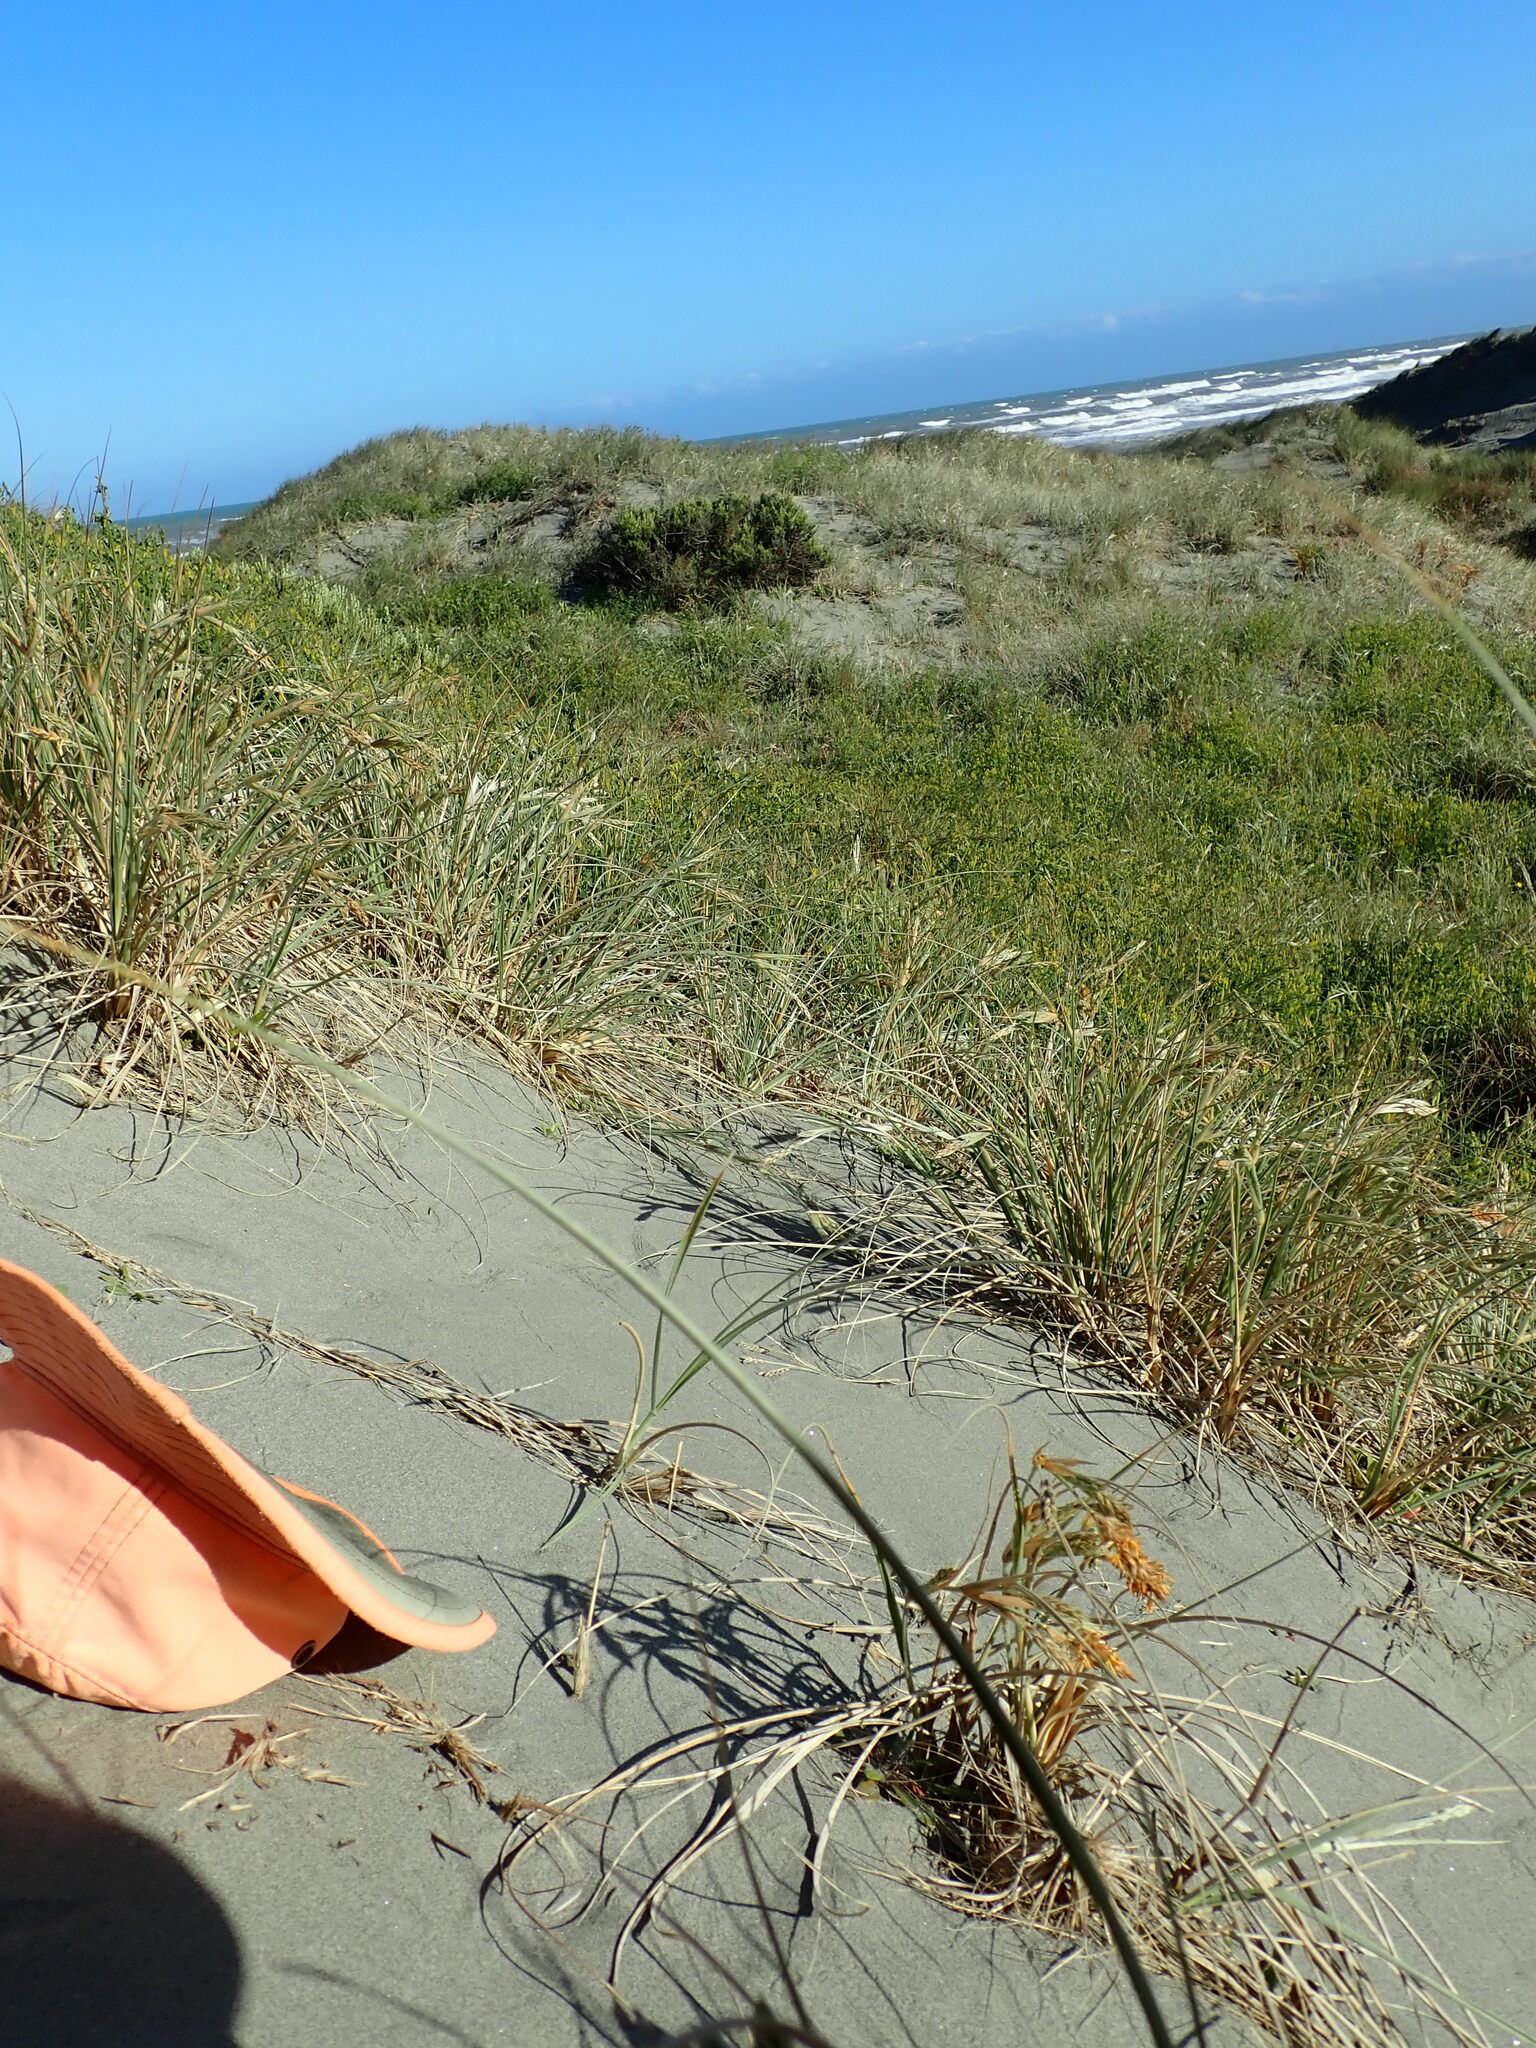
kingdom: Plantae
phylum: Tracheophyta
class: Liliopsida
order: Poales
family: Poaceae
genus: Spinifex
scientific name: Spinifex sericeus
